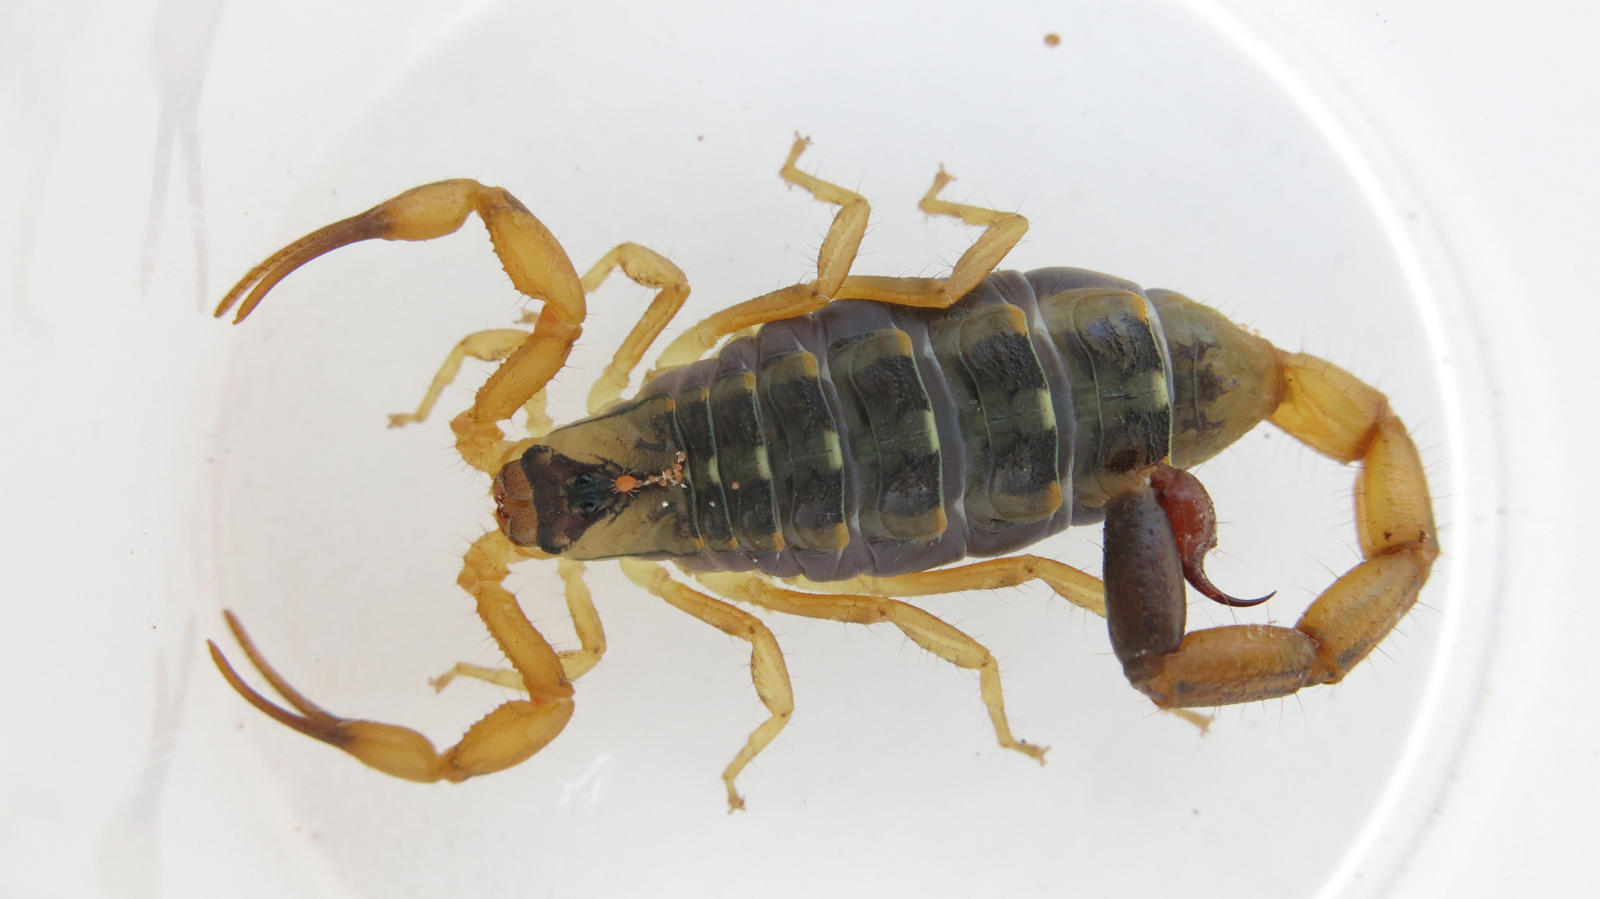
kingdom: Animalia
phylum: Arthropoda
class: Arachnida
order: Scorpiones
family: Buthidae
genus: Uroplectes
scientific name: Uroplectes vittatus
